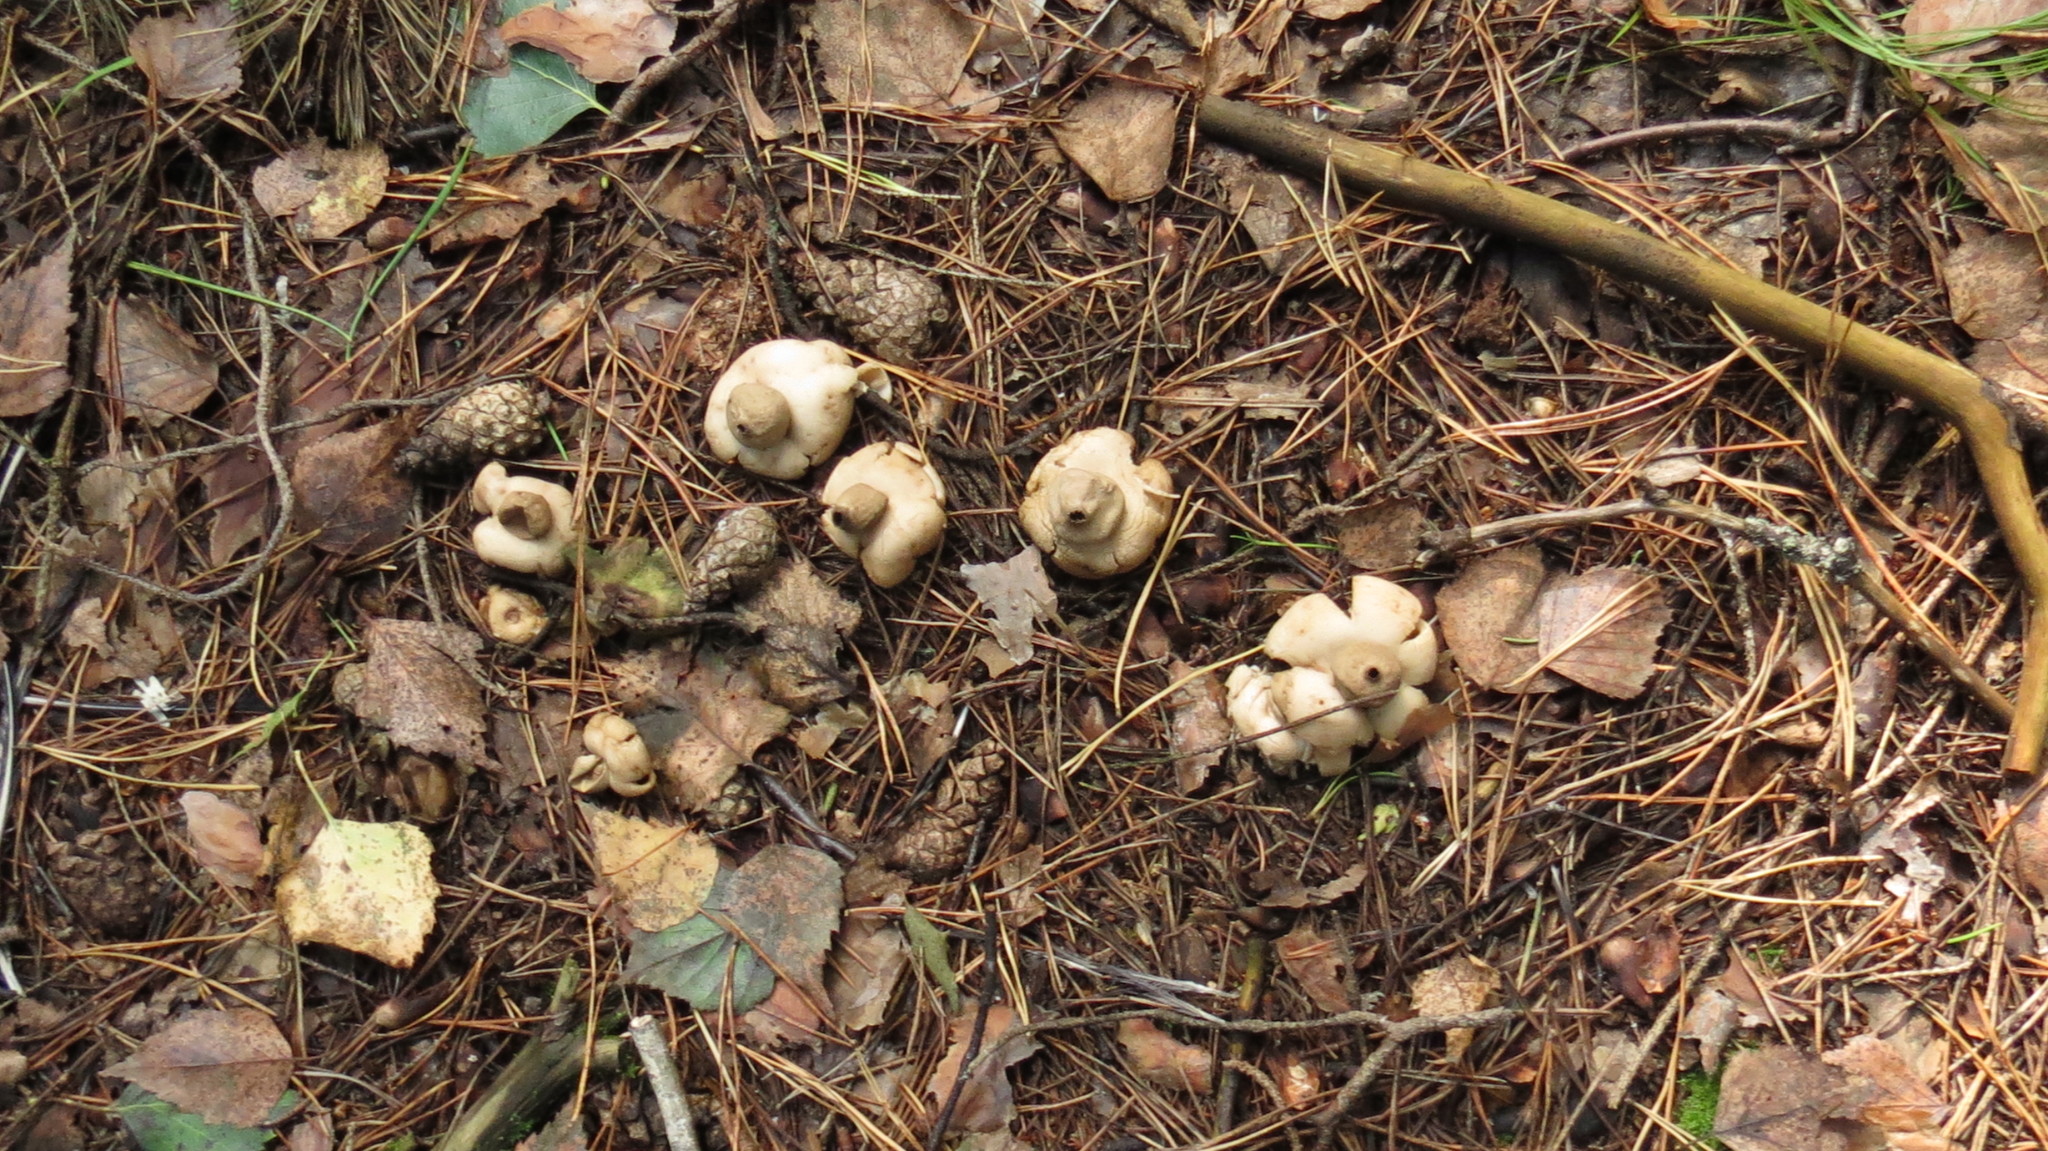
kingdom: Fungi
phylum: Basidiomycota
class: Agaricomycetes
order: Geastrales
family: Geastraceae
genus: Geastrum
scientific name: Geastrum fimbriatum
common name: Sessile earthstar
